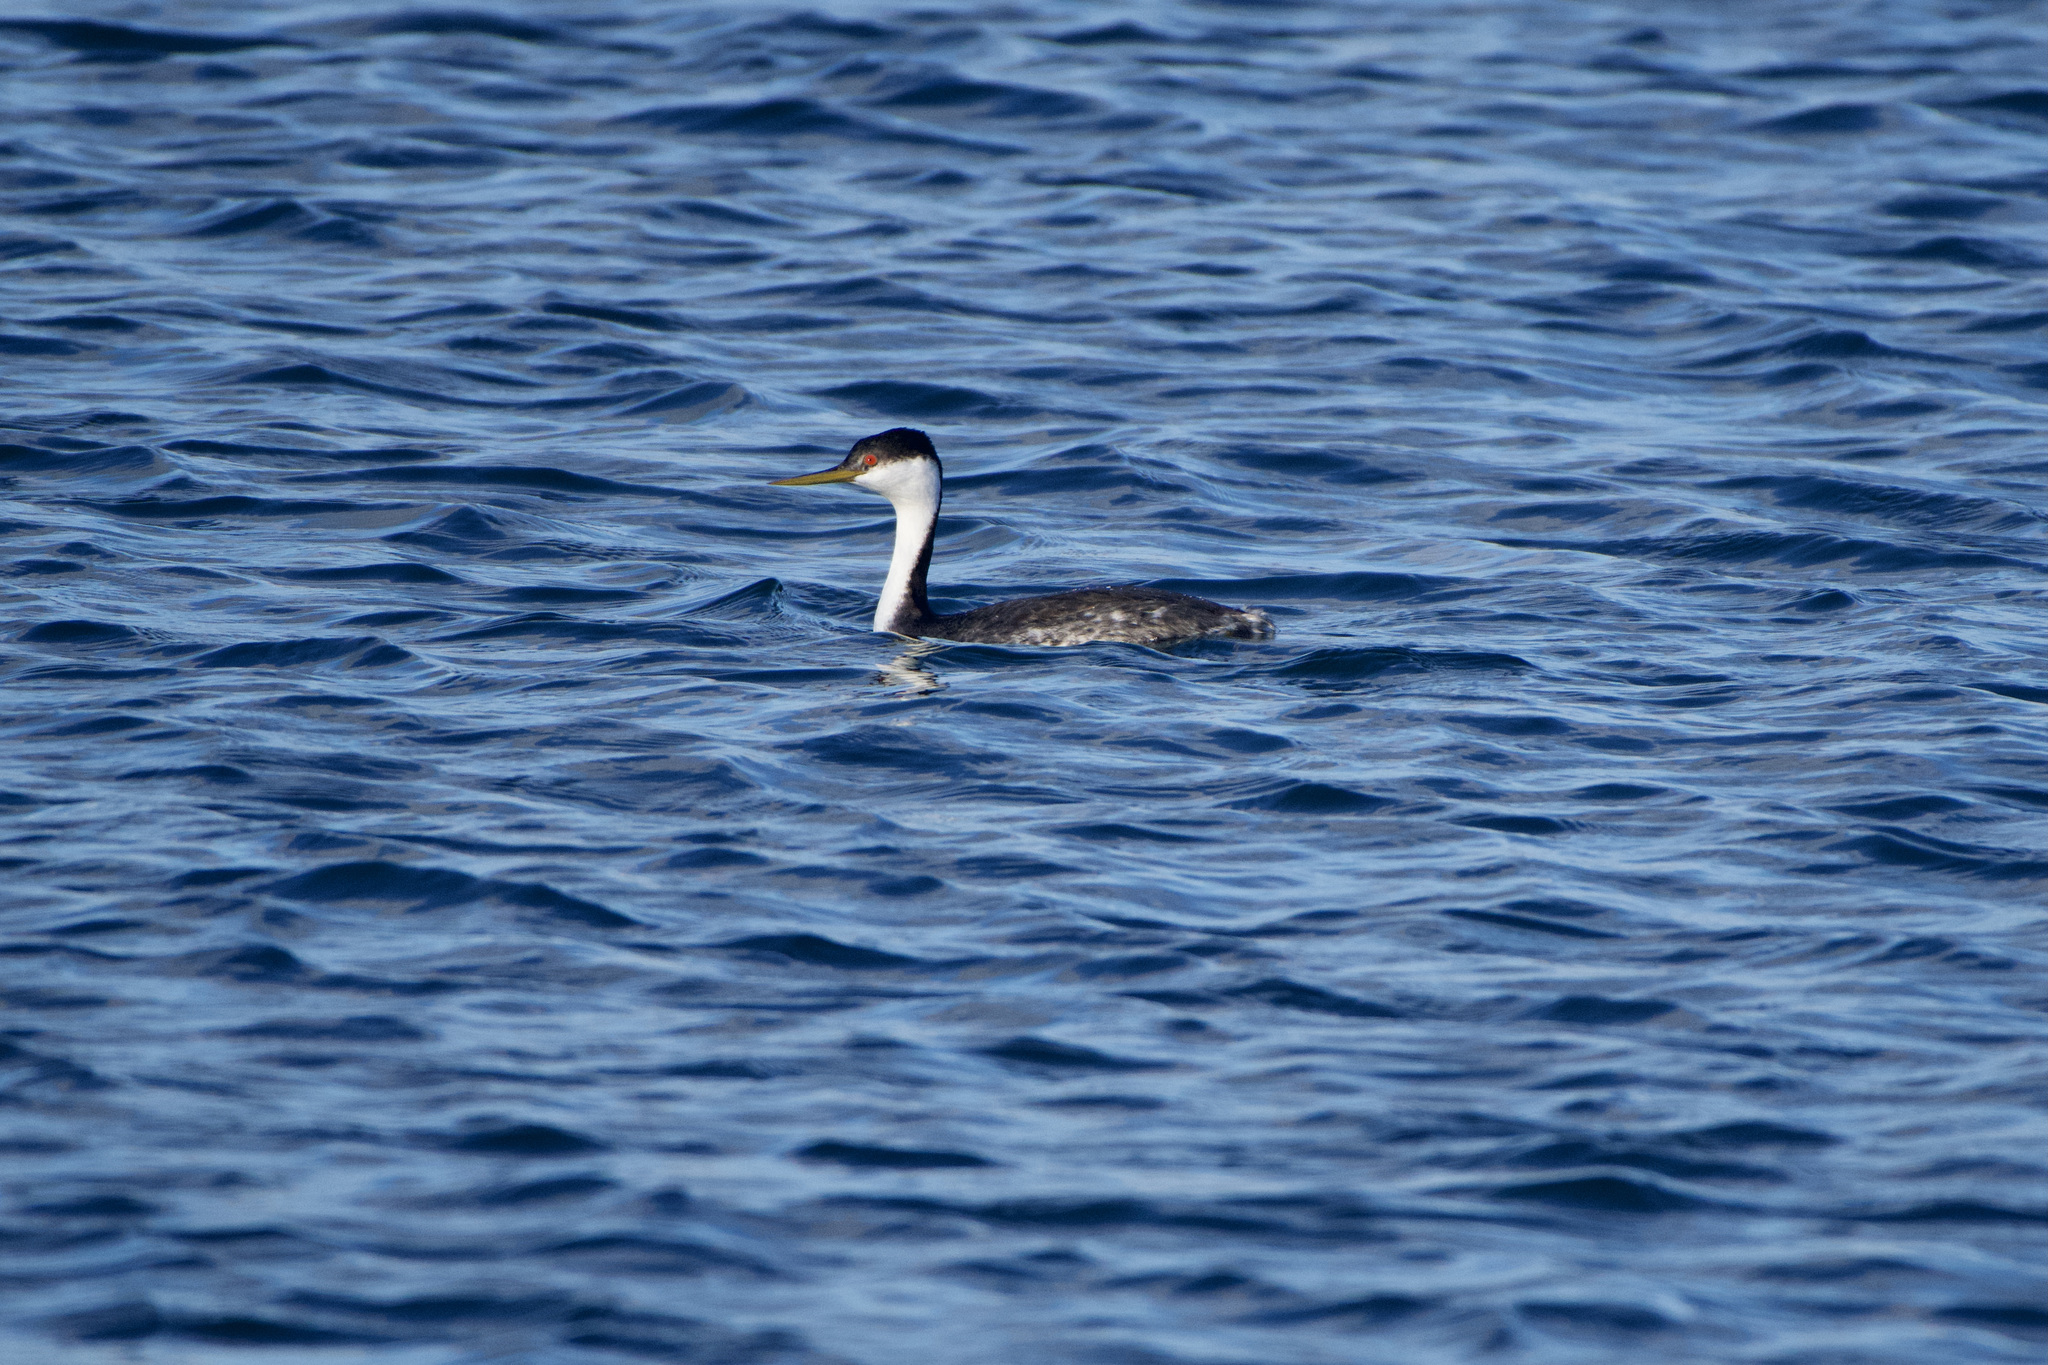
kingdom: Animalia
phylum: Chordata
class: Aves
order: Podicipediformes
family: Podicipedidae
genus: Aechmophorus
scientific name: Aechmophorus occidentalis
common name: Western grebe
